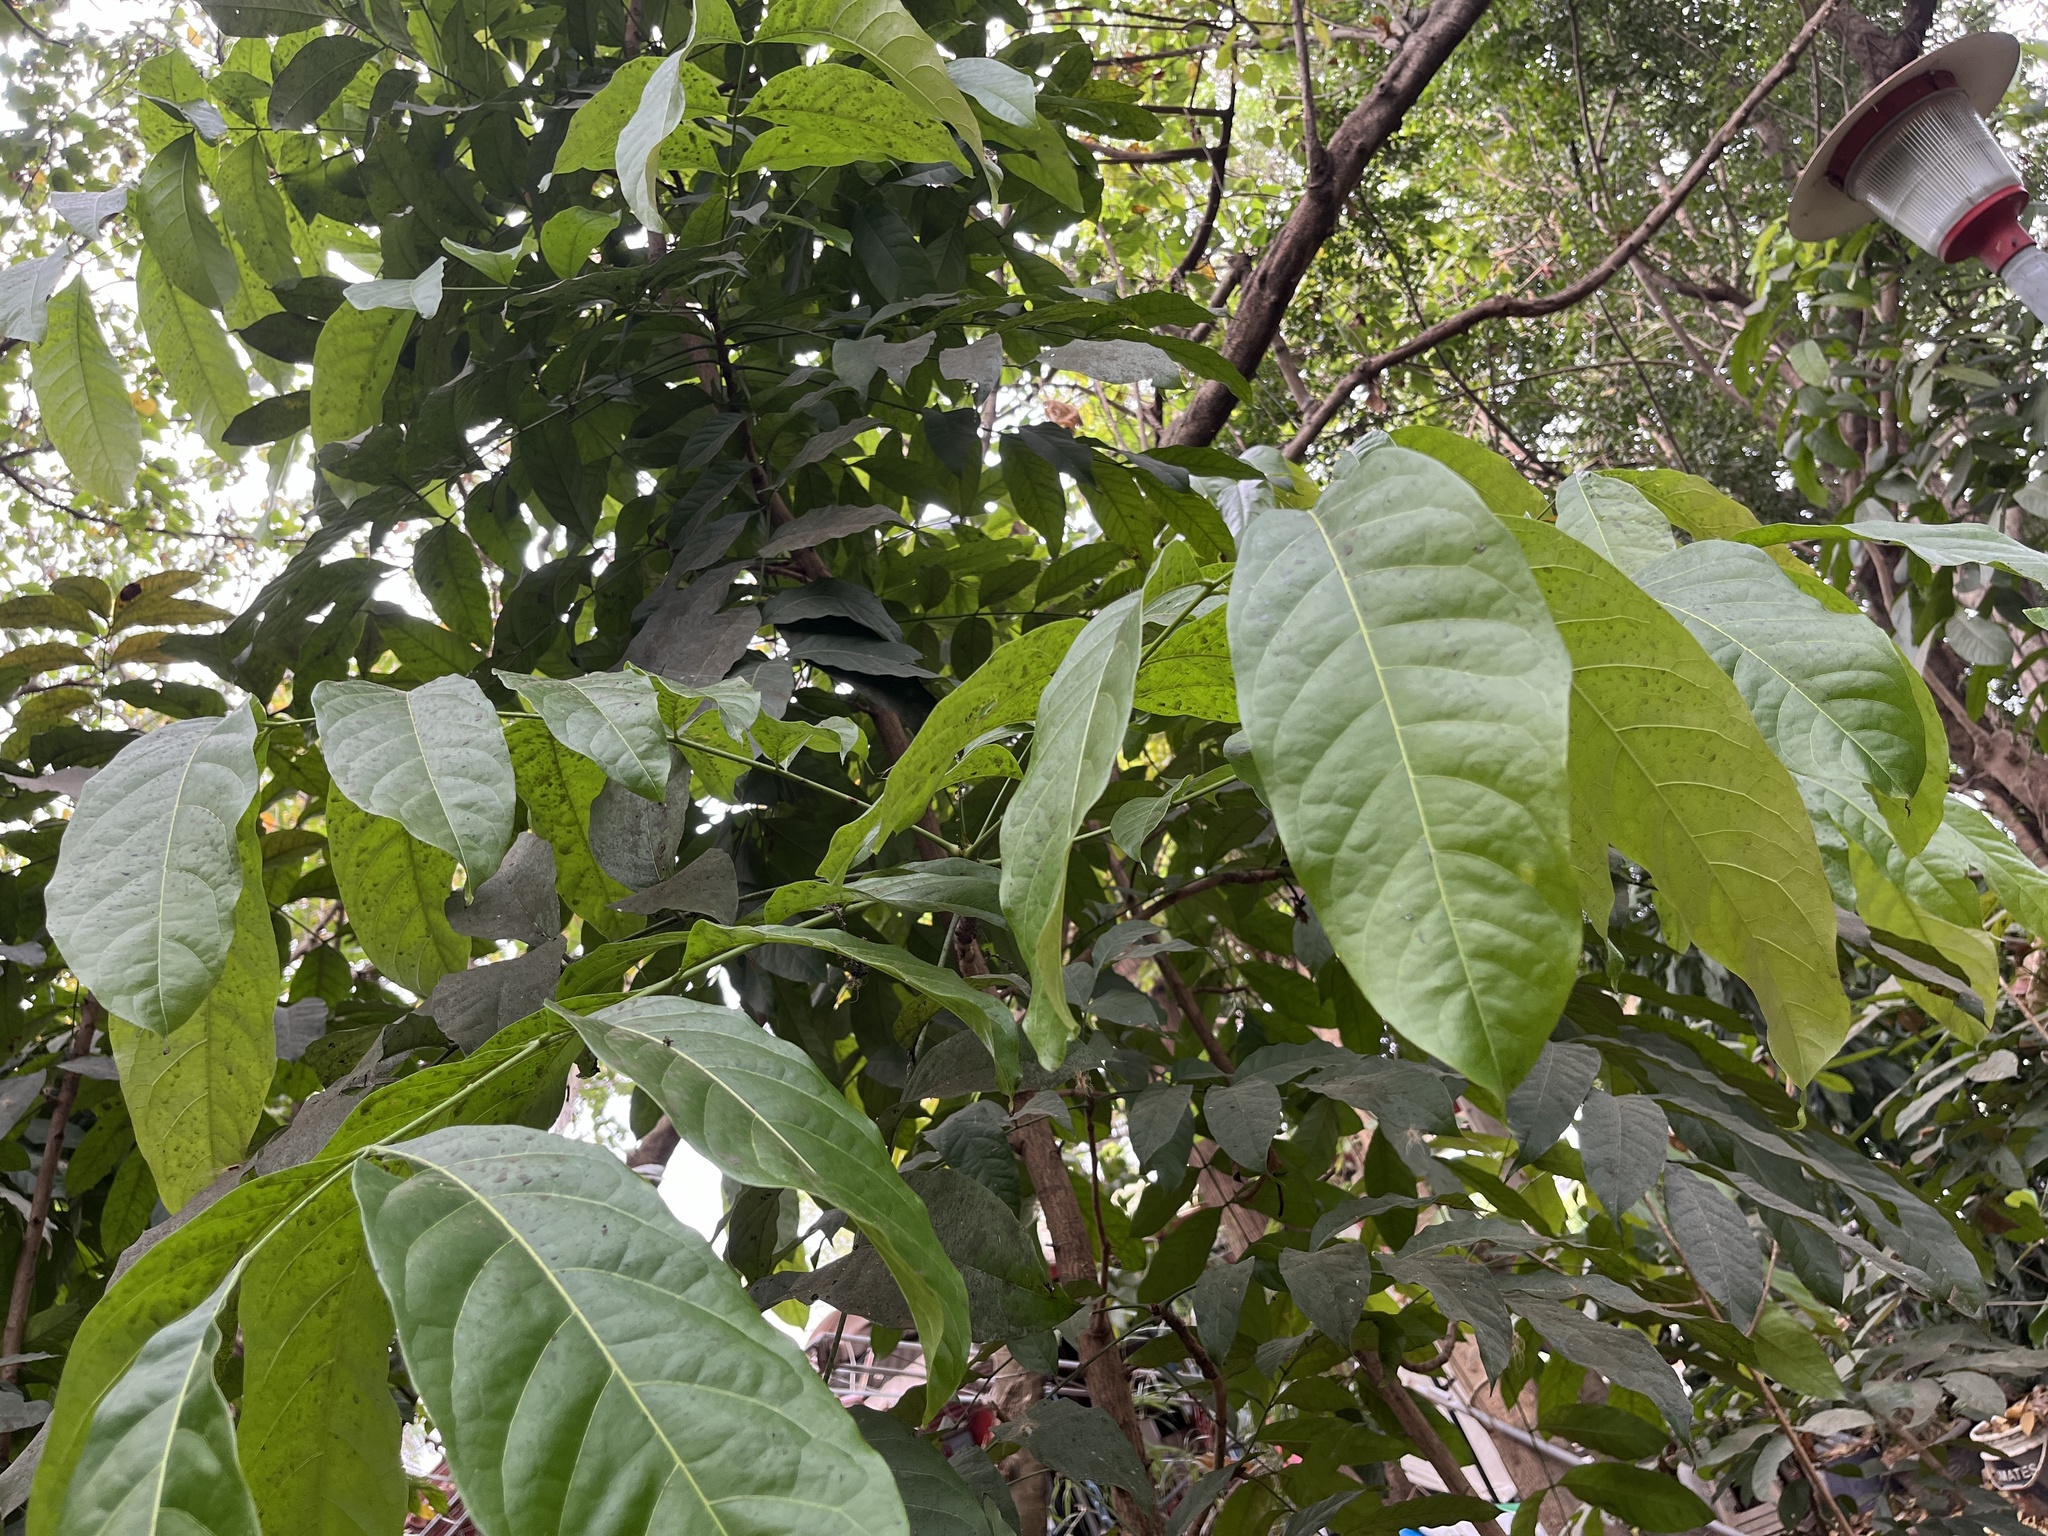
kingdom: Plantae
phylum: Tracheophyta
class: Magnoliopsida
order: Sapindales
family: Meliaceae
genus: Swietenia
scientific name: Swietenia macrophylla
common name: Honduras mahogany
